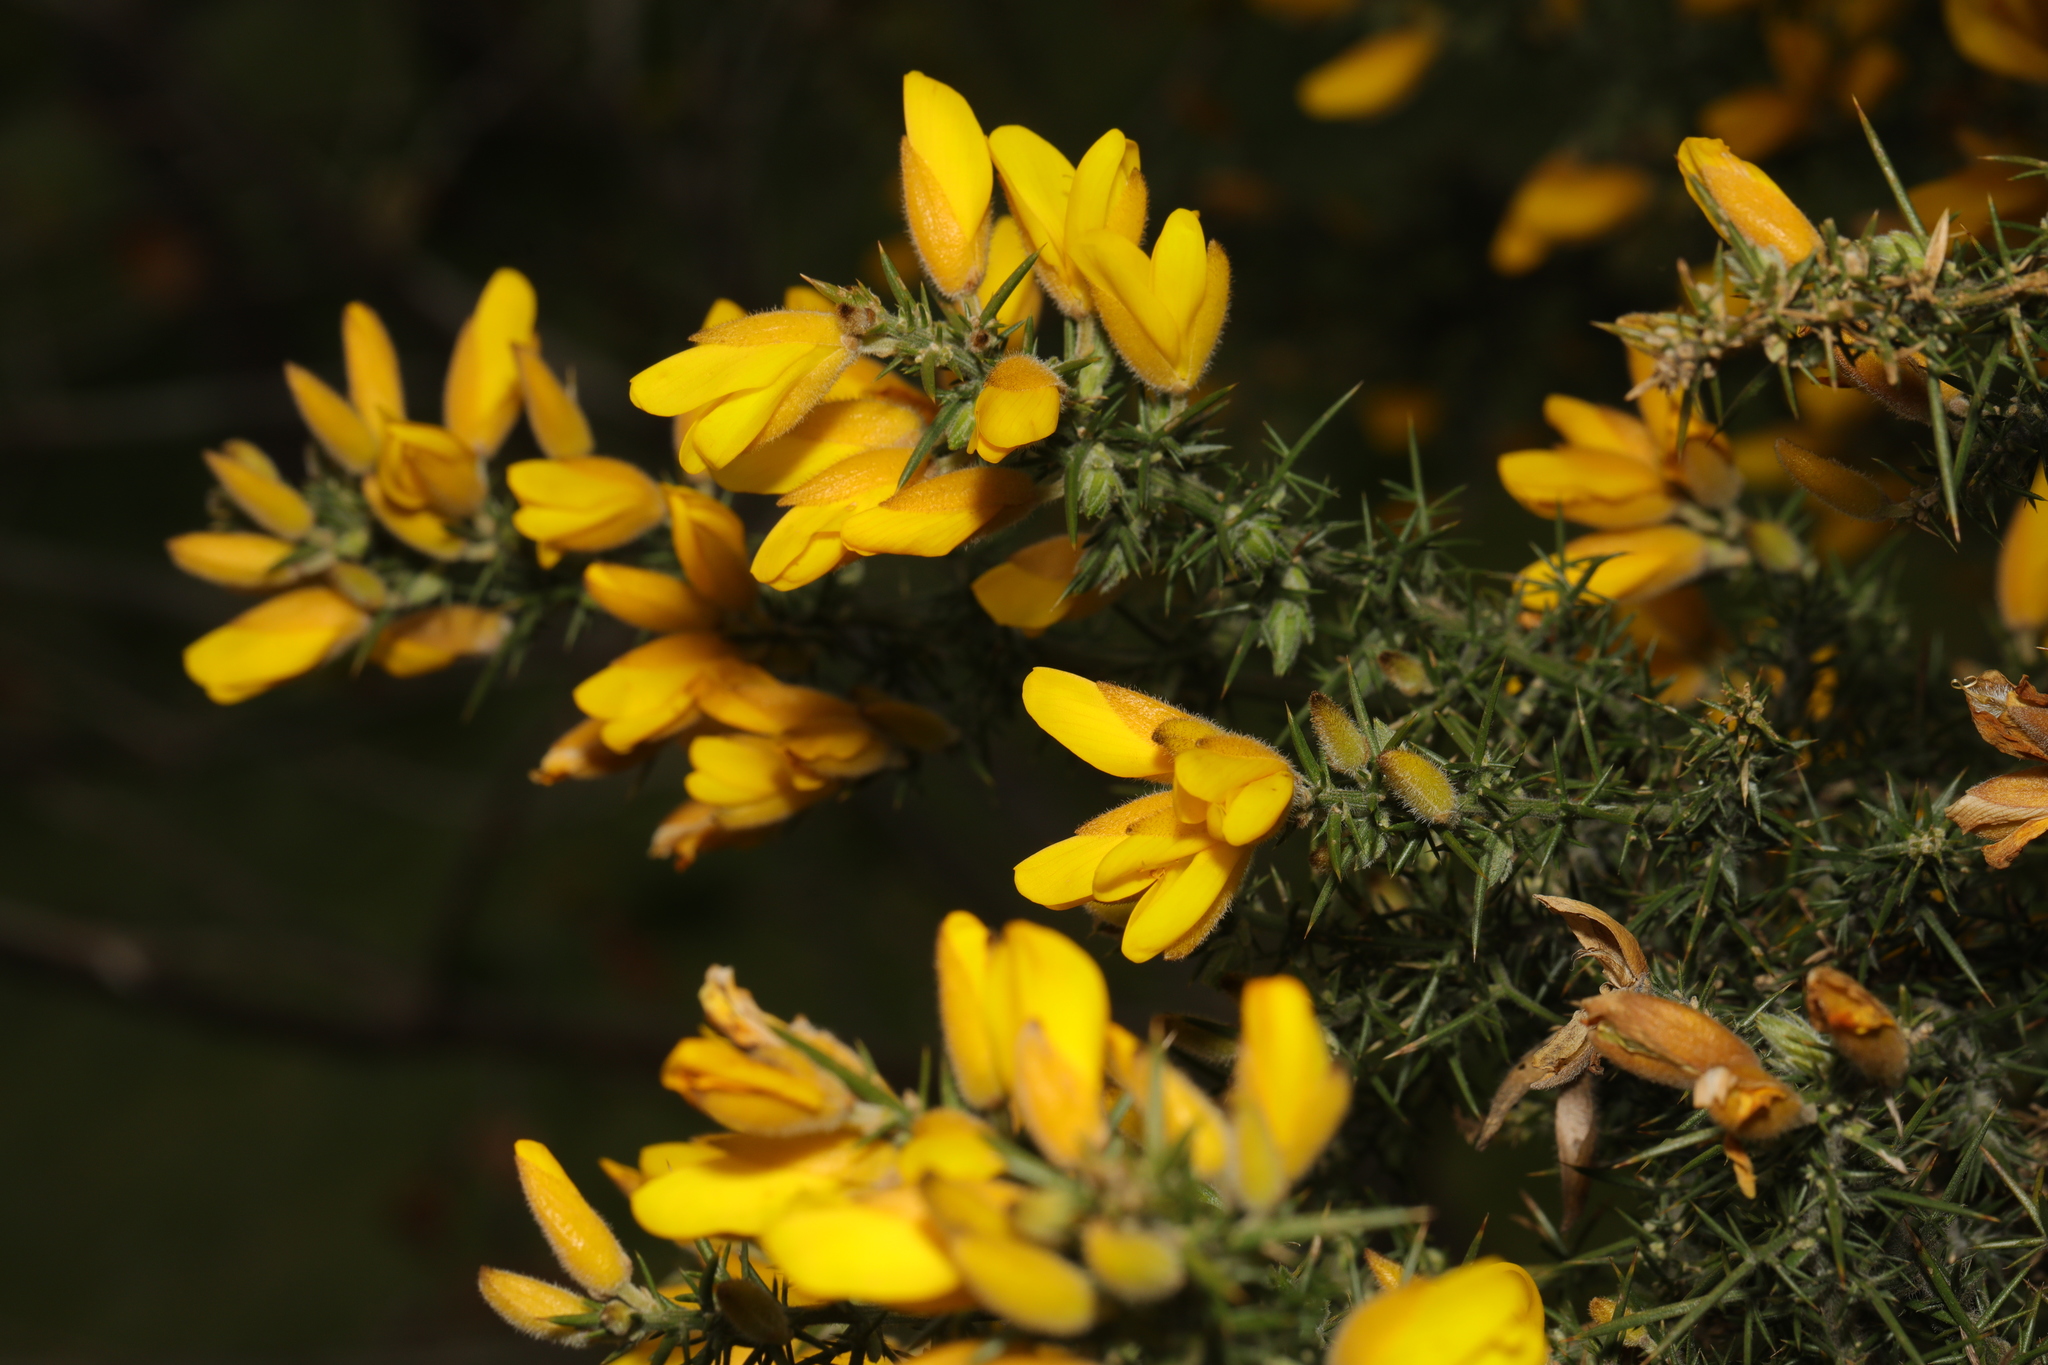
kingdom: Plantae
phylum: Tracheophyta
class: Magnoliopsida
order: Fabales
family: Fabaceae
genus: Ulex
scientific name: Ulex europaeus
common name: Common gorse
